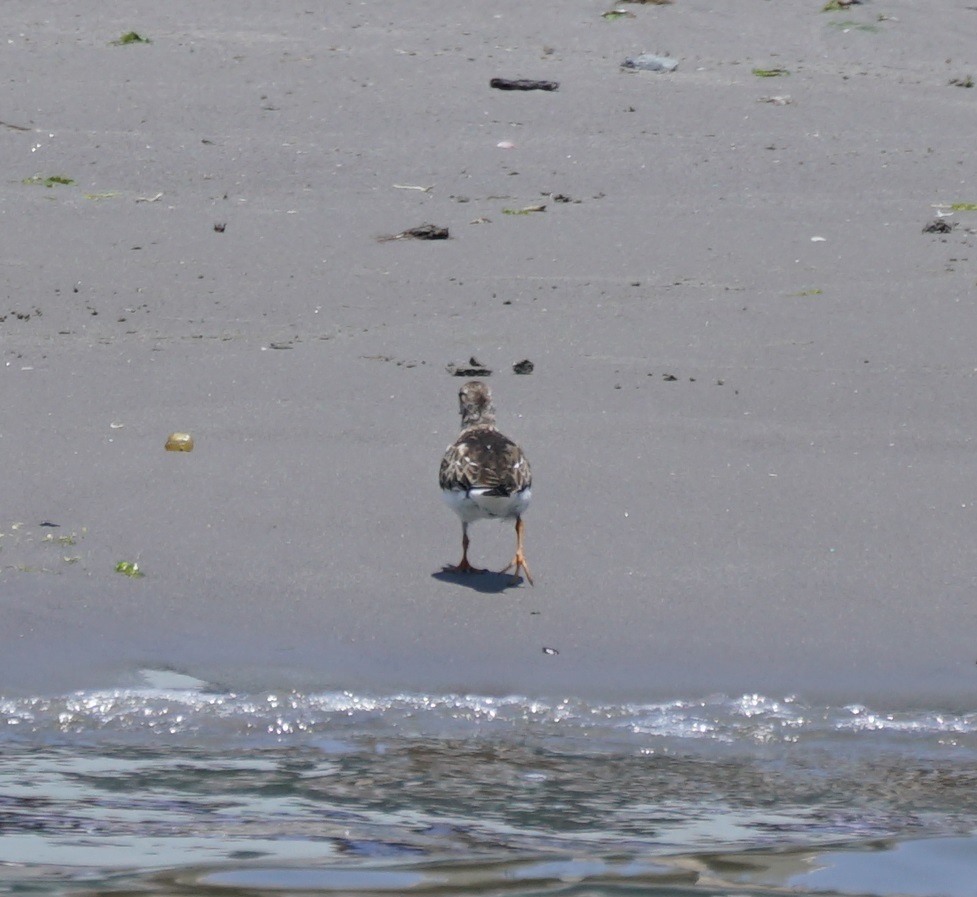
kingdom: Animalia
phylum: Chordata
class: Aves
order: Charadriiformes
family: Scolopacidae
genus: Arenaria
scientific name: Arenaria interpres
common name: Ruddy turnstone
